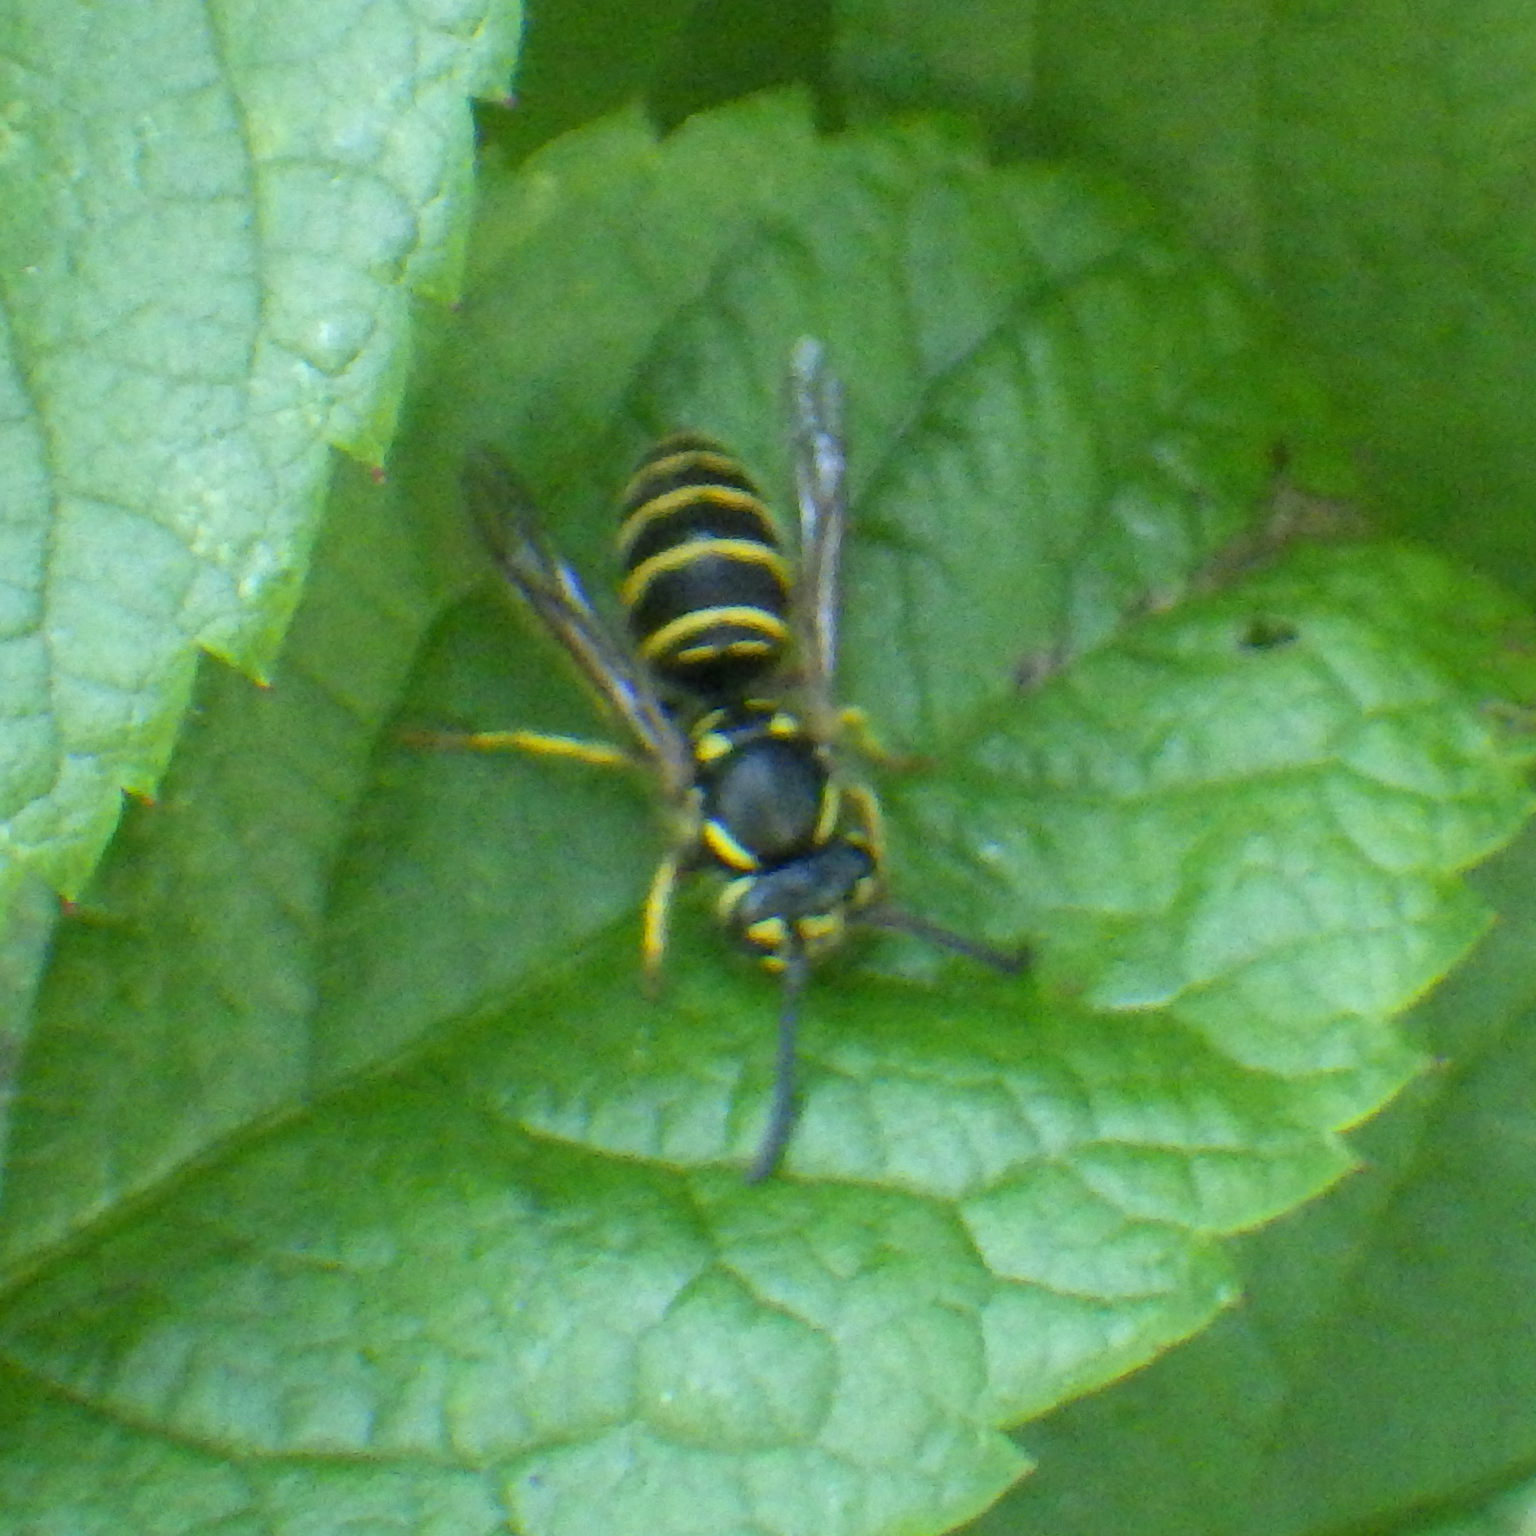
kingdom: Animalia
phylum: Arthropoda
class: Insecta
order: Hymenoptera
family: Vespidae
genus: Vespula
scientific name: Vespula maculifrons
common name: Eastern yellowjacket
